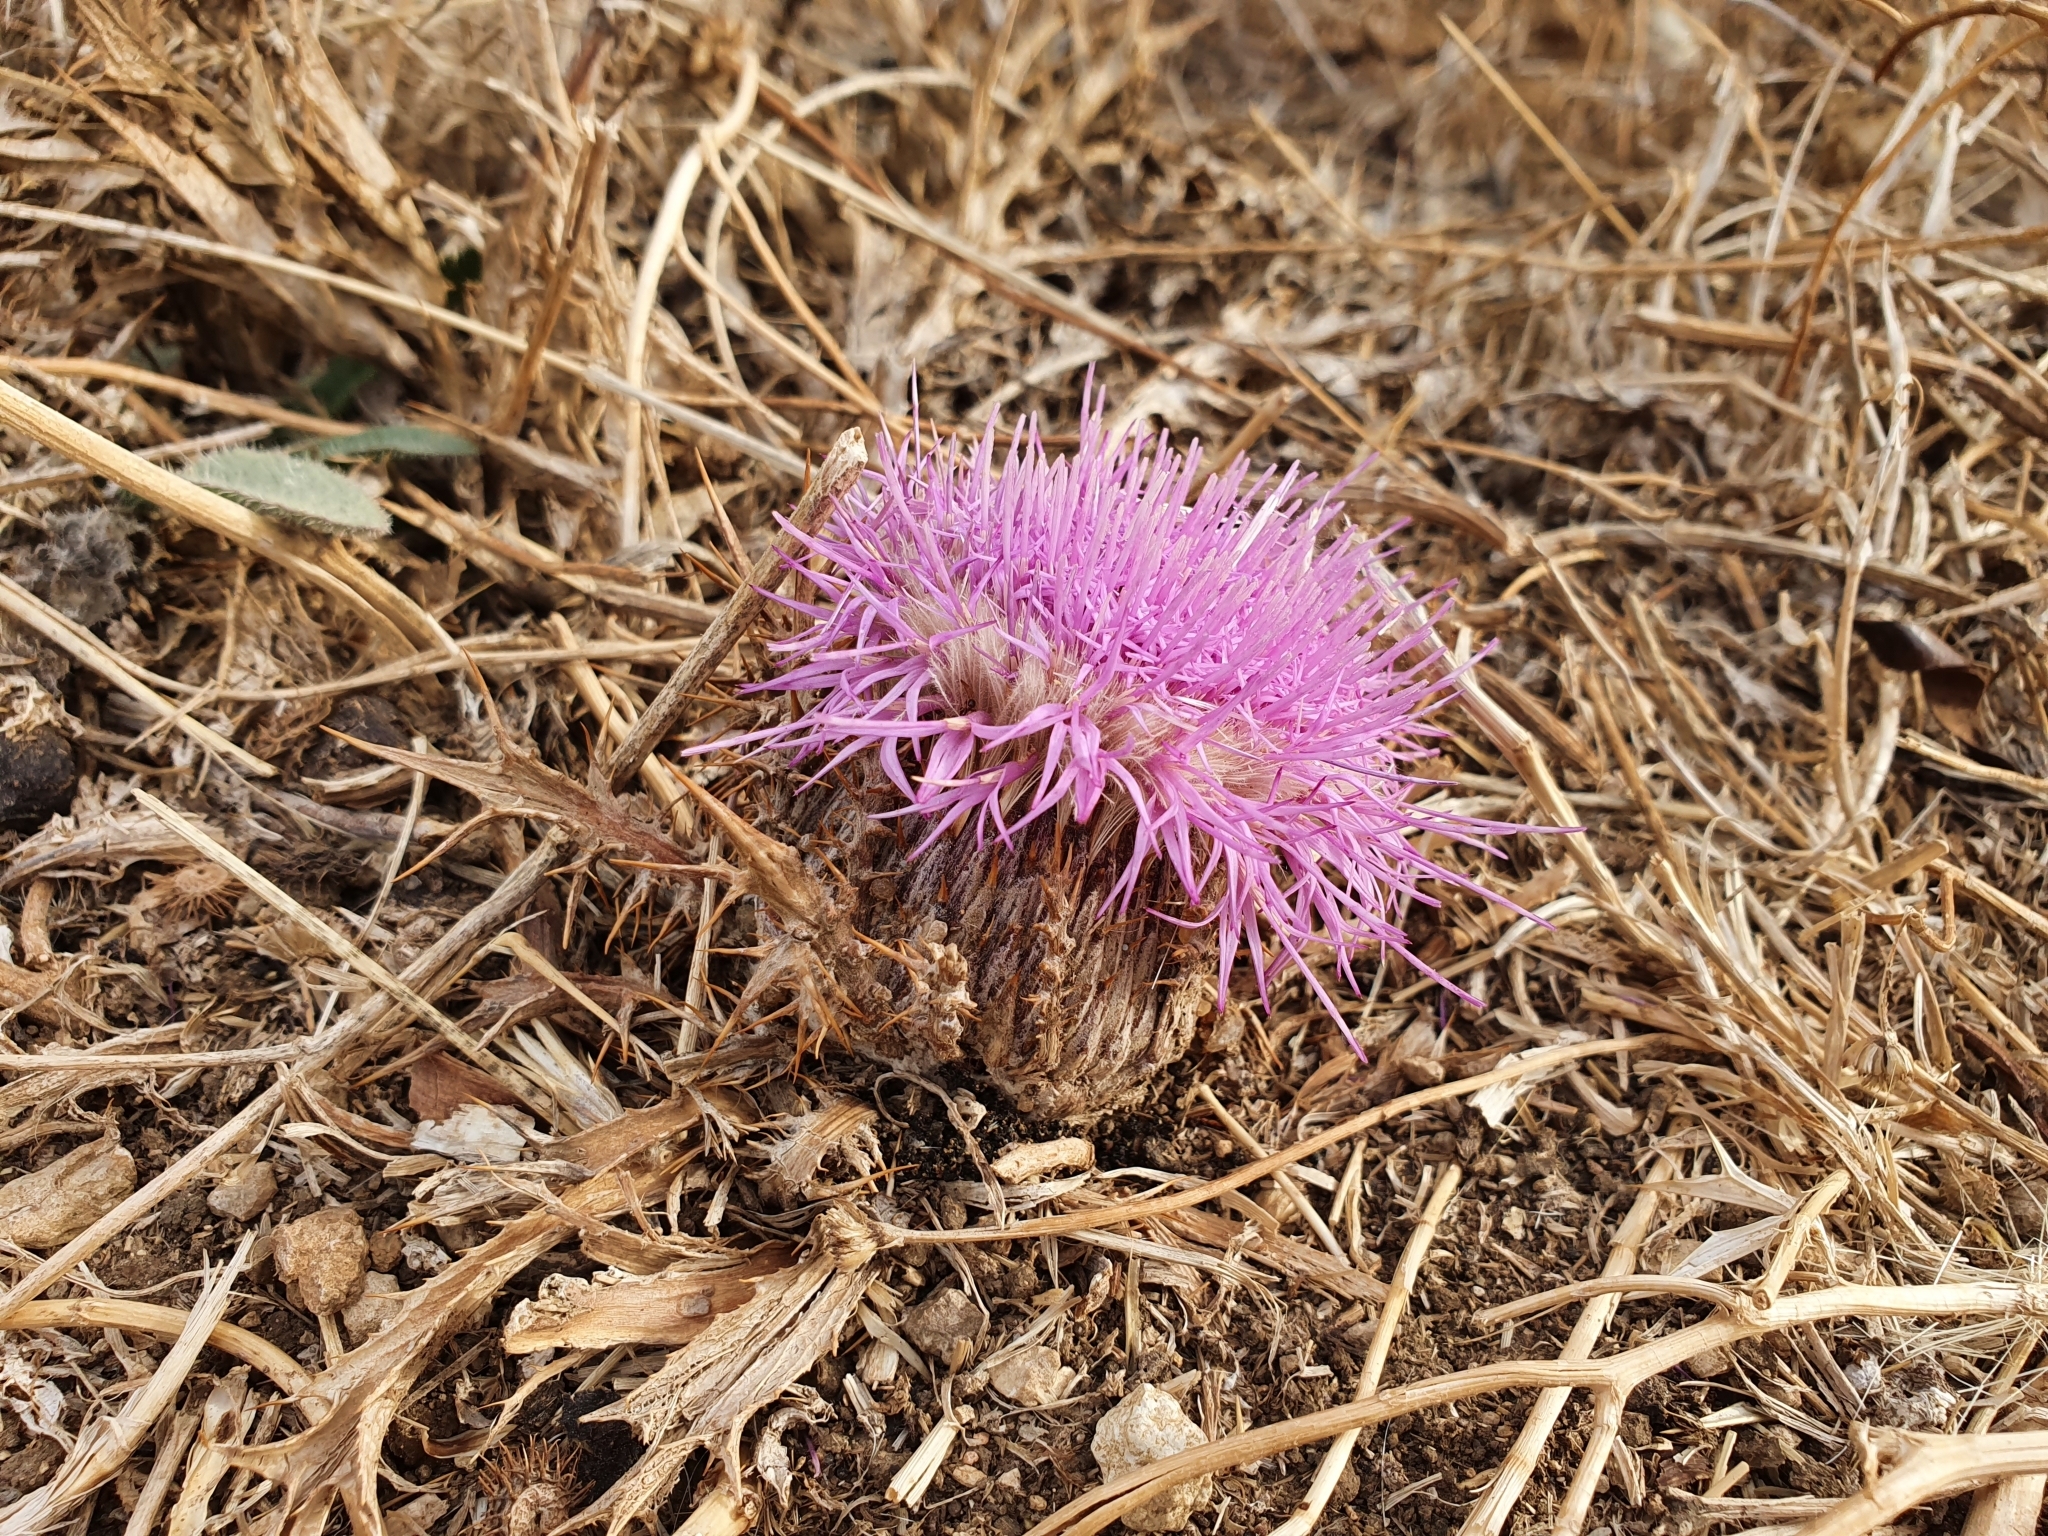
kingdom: Plantae
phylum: Tracheophyta
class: Magnoliopsida
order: Asterales
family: Asteraceae
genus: Chamaeleon
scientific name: Chamaeleon gummifer
